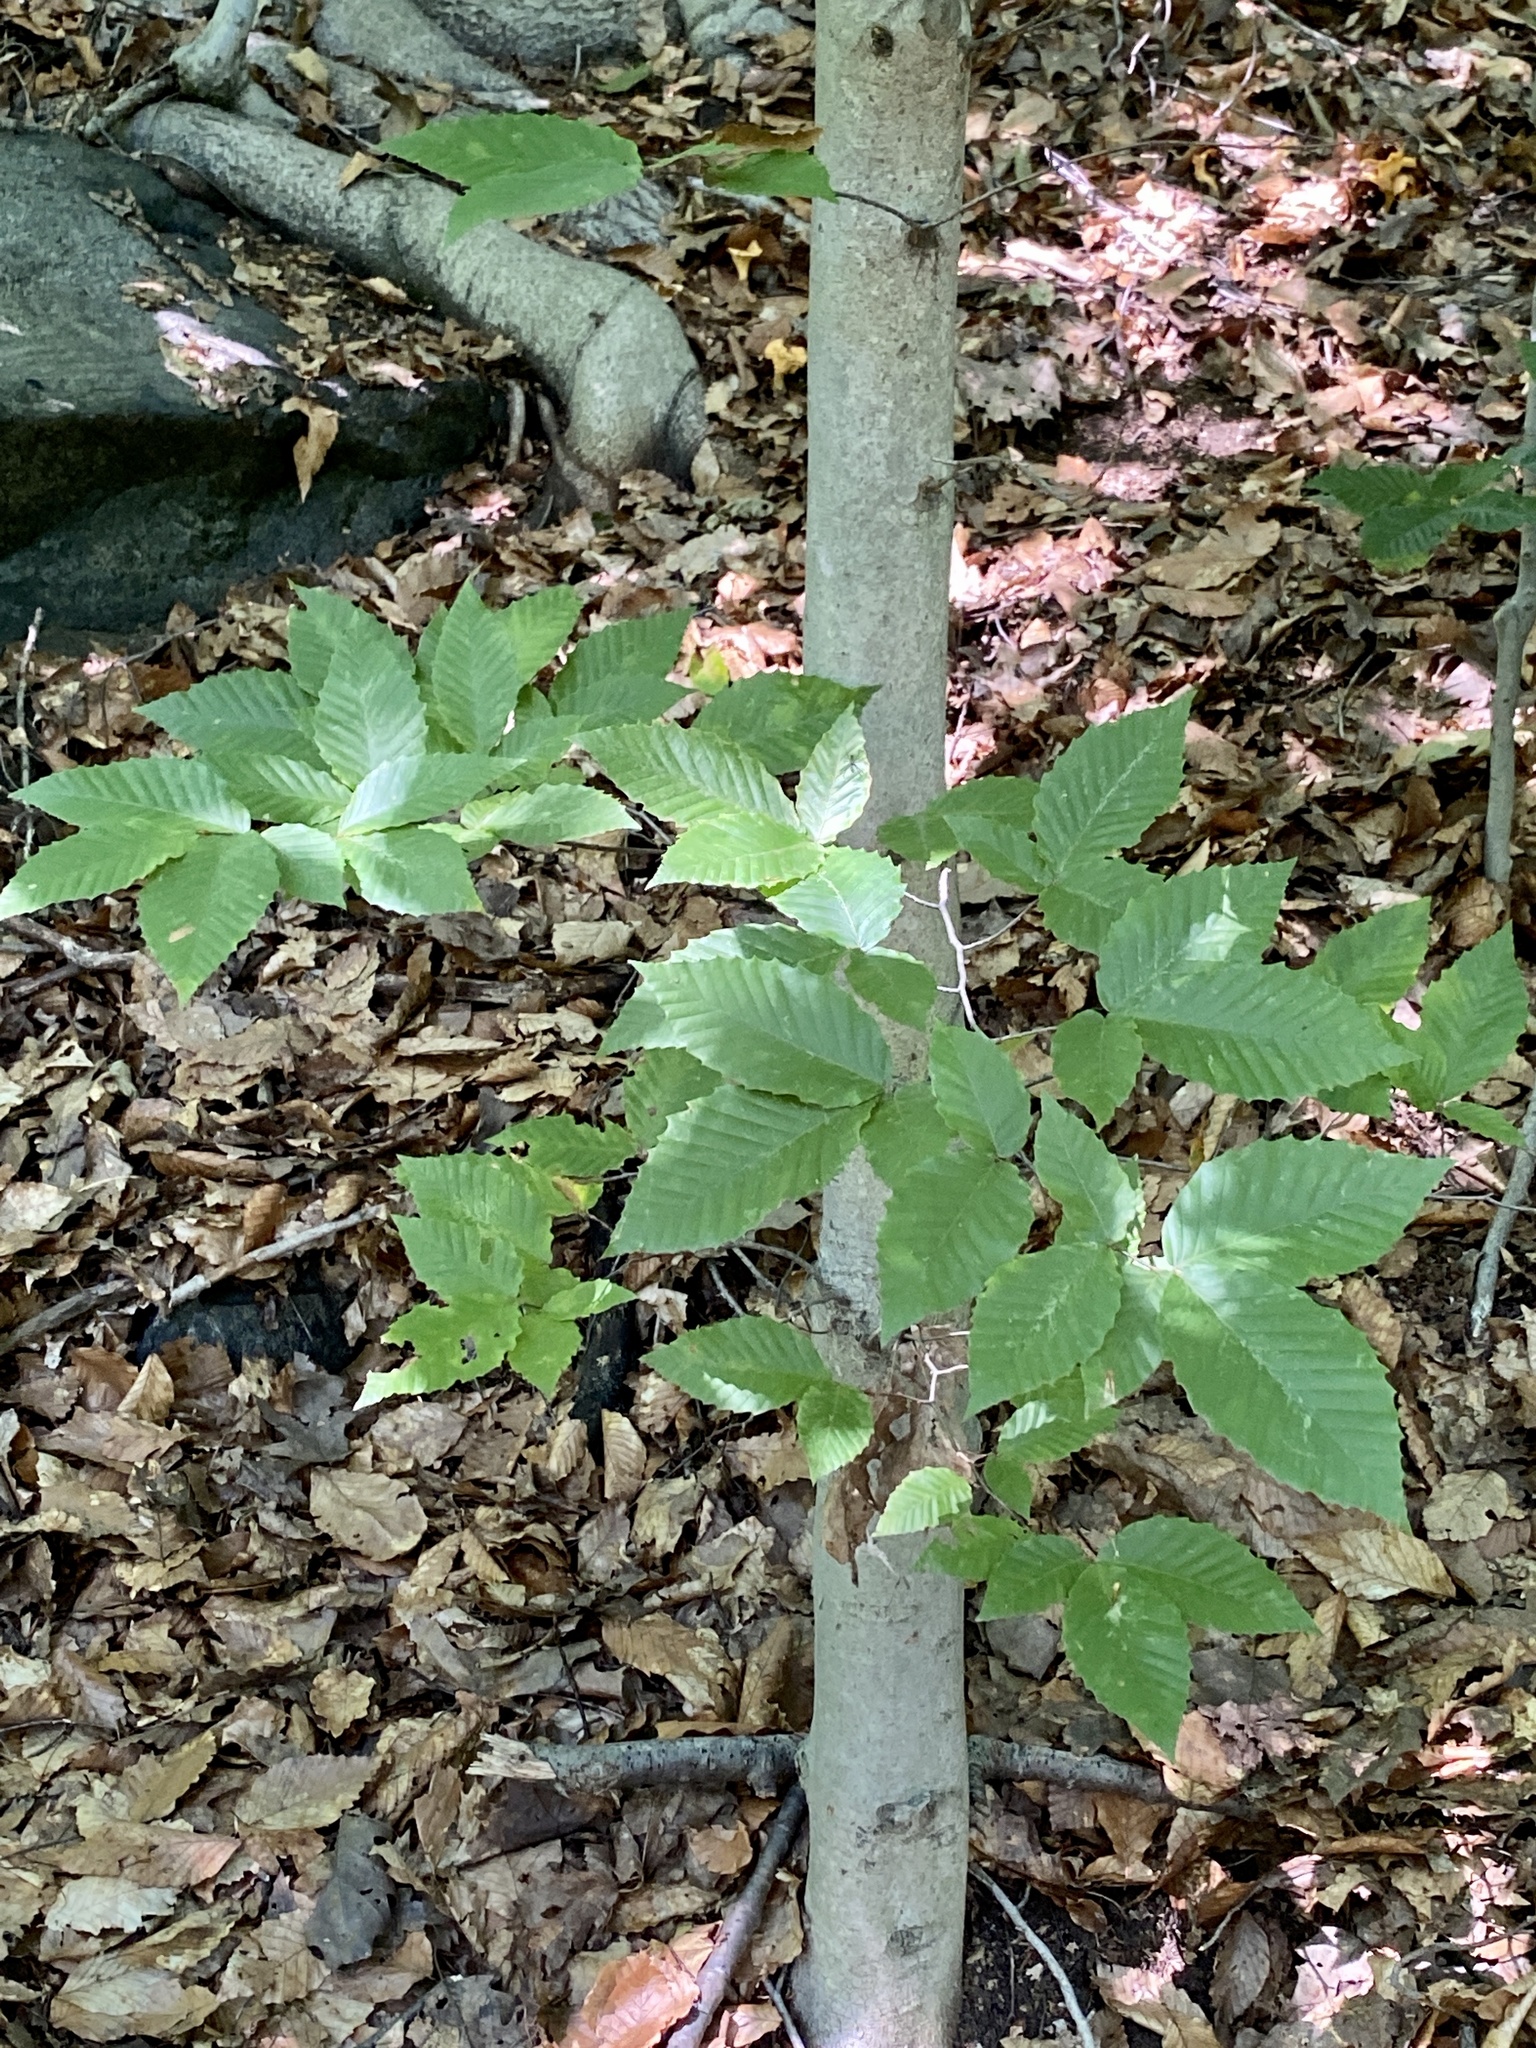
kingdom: Plantae
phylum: Tracheophyta
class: Magnoliopsida
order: Fagales
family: Fagaceae
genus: Fagus
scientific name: Fagus grandifolia
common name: American beech
